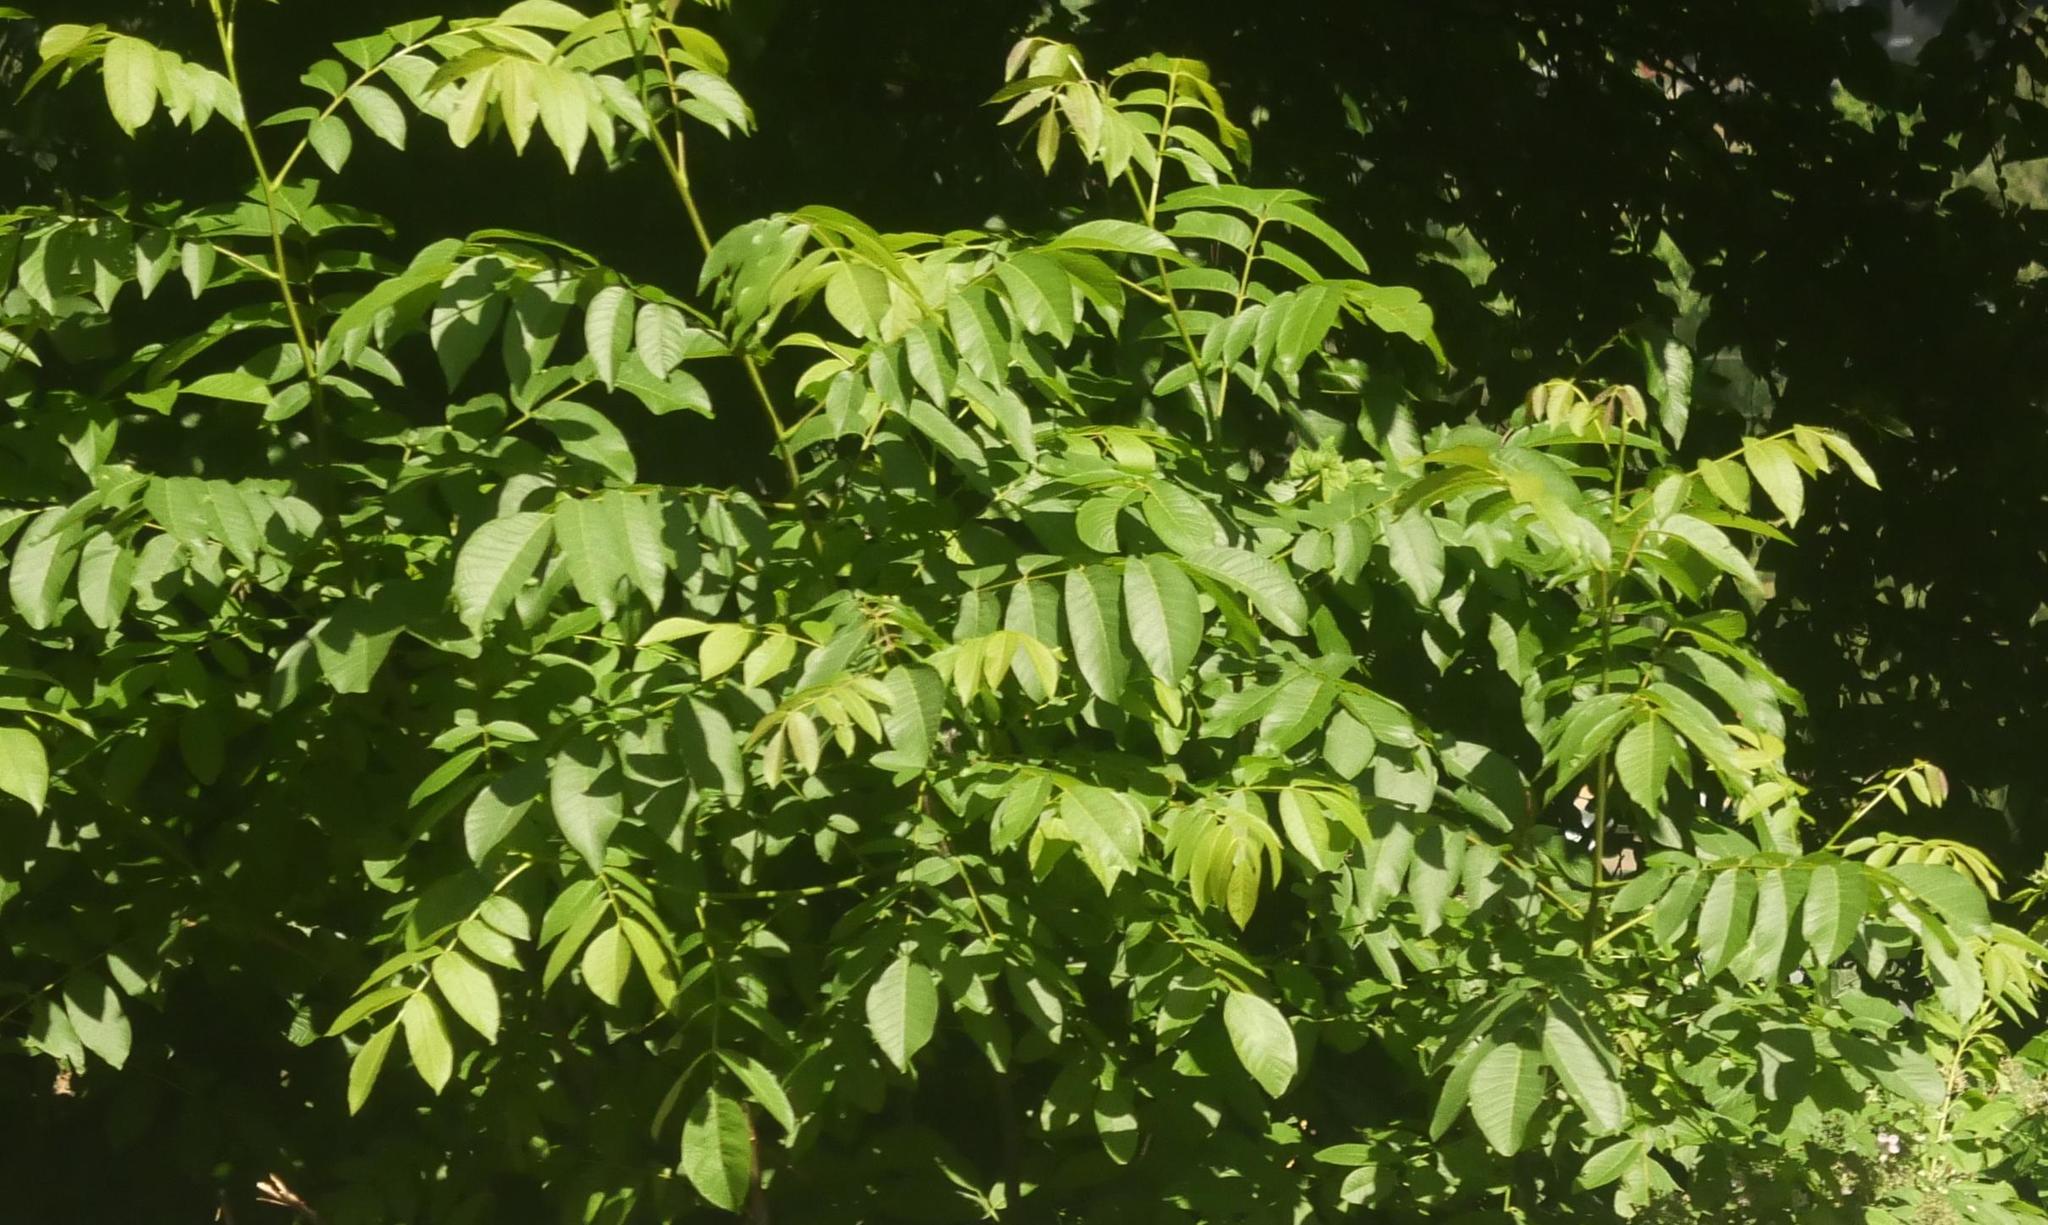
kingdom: Plantae
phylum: Tracheophyta
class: Magnoliopsida
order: Fagales
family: Juglandaceae
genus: Juglans
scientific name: Juglans regia
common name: Walnut
